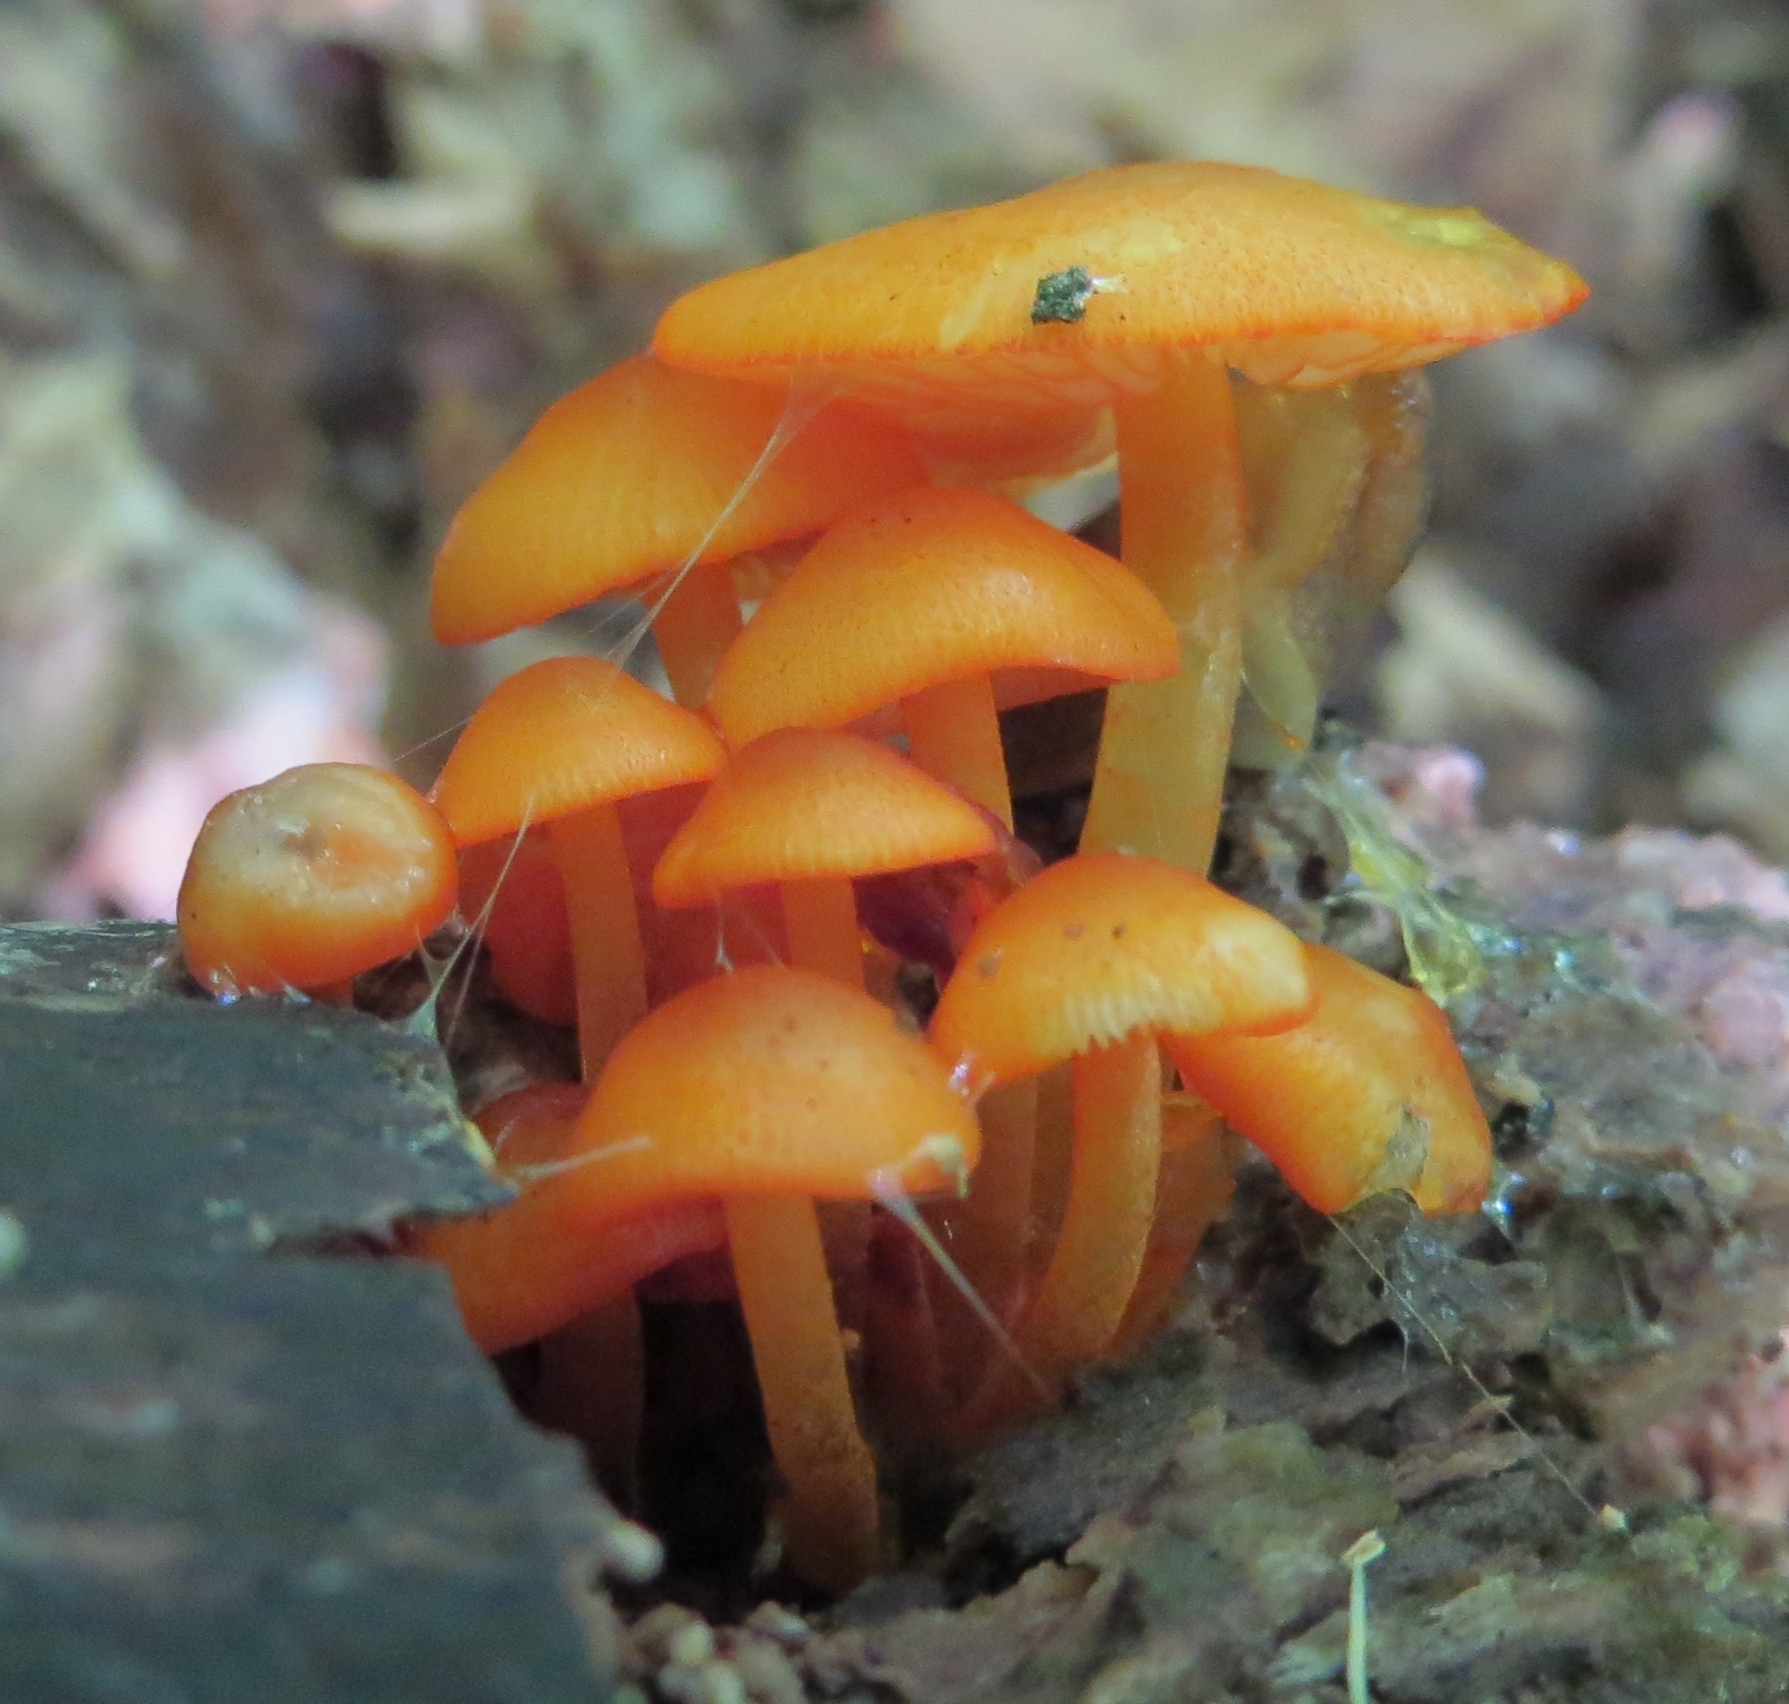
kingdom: Fungi
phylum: Basidiomycota
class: Agaricomycetes
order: Agaricales
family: Mycenaceae
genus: Mycena
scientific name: Mycena leaiana
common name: Orange mycena
